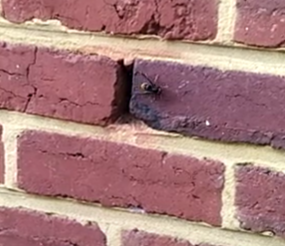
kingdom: Animalia
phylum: Arthropoda
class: Insecta
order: Hymenoptera
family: Vespidae
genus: Vespa
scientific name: Vespa velutina
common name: Asian hornet
